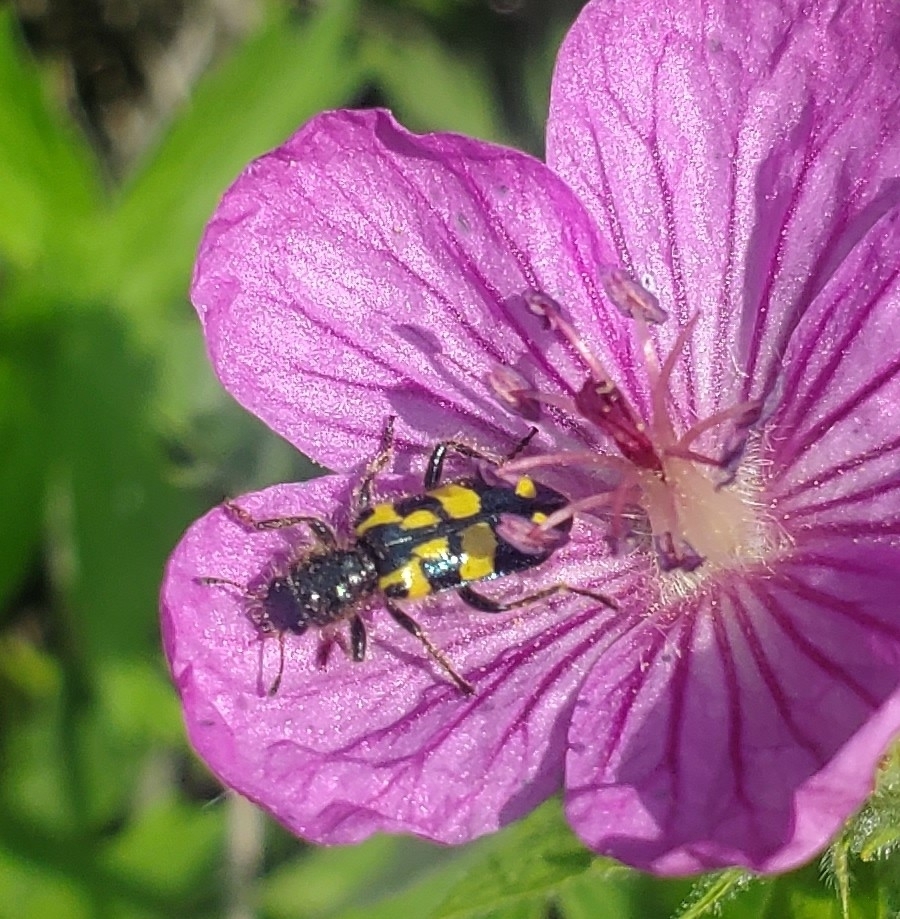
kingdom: Animalia
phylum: Arthropoda
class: Insecta
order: Coleoptera
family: Cleridae
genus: Trichodes
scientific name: Trichodes ornatus
